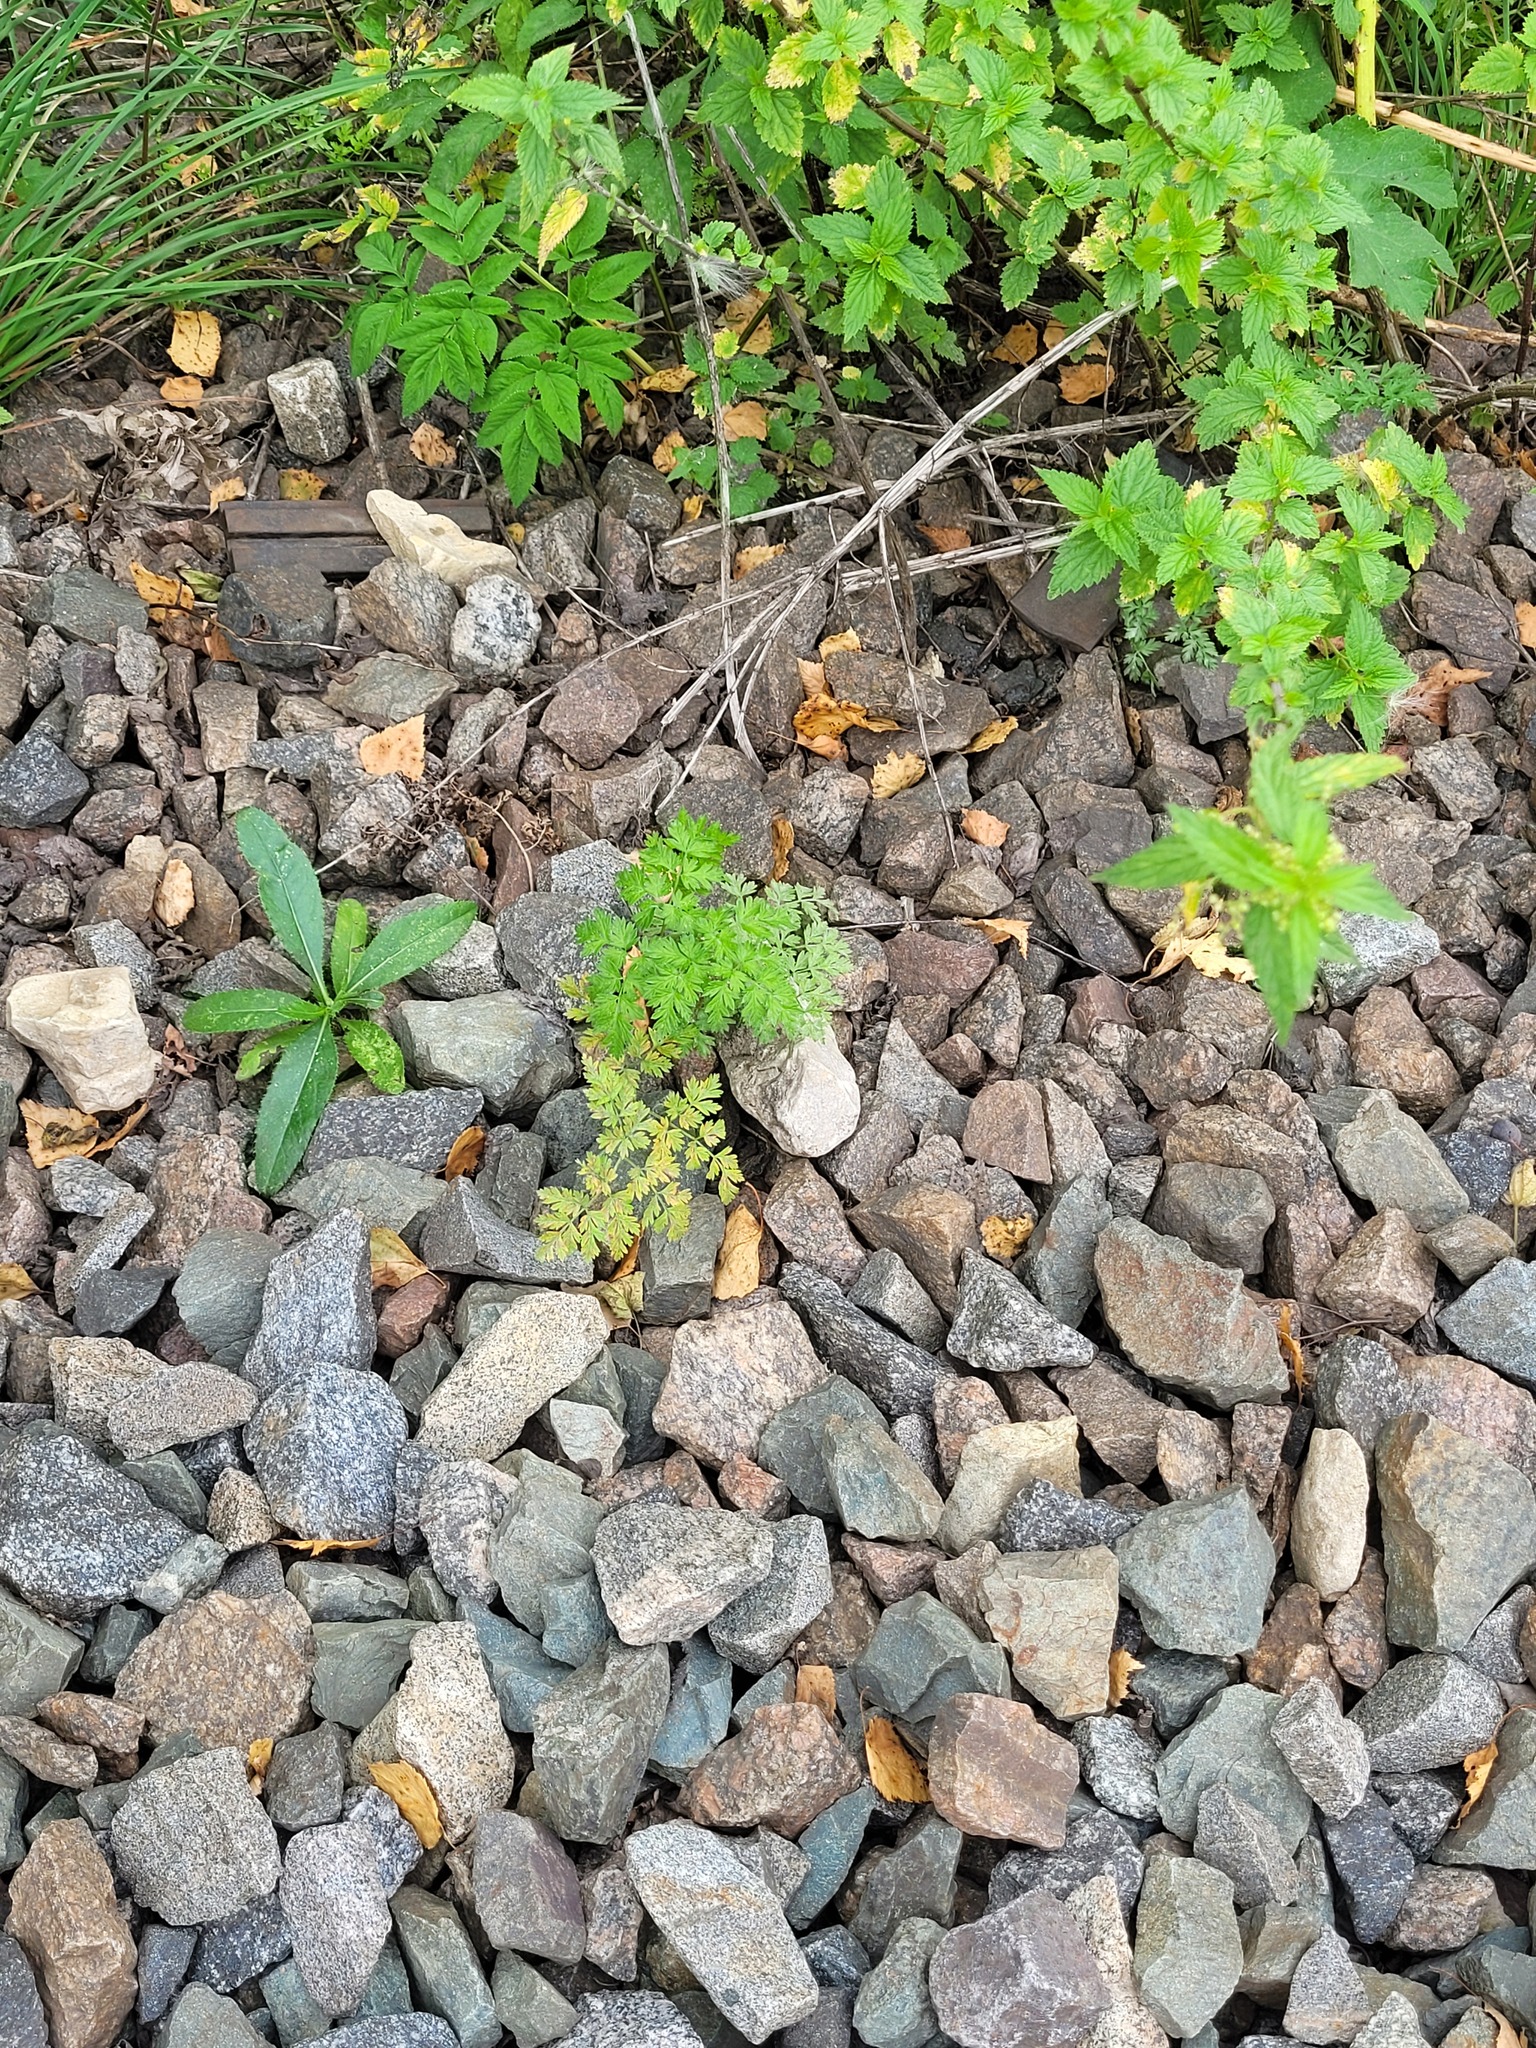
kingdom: Plantae
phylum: Tracheophyta
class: Magnoliopsida
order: Apiales
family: Apiaceae
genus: Anthriscus
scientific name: Anthriscus sylvestris
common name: Cow parsley
